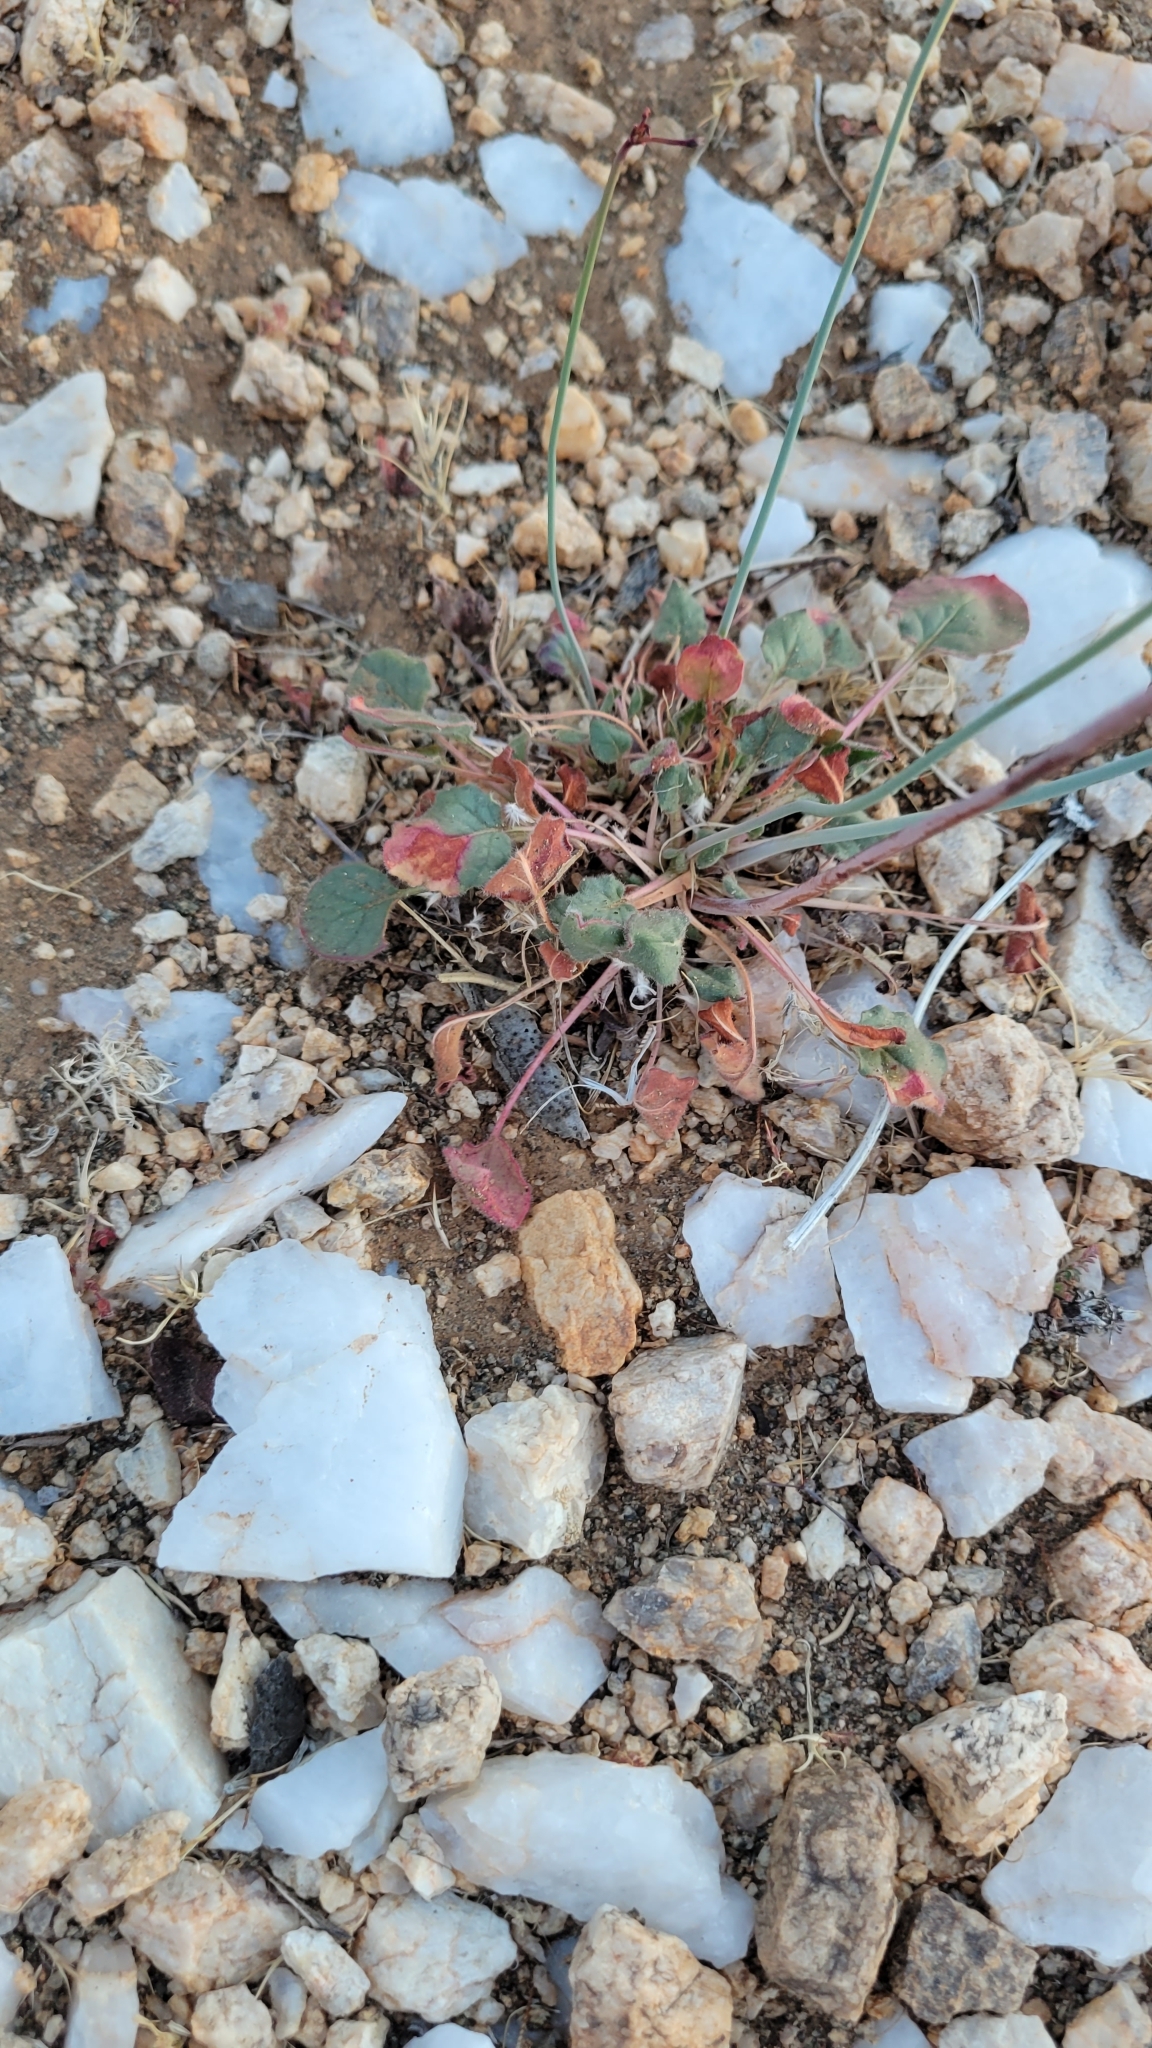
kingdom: Plantae
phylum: Tracheophyta
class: Magnoliopsida
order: Caryophyllales
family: Polygonaceae
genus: Eriogonum
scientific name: Eriogonum inflatum
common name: Desert trumpet
